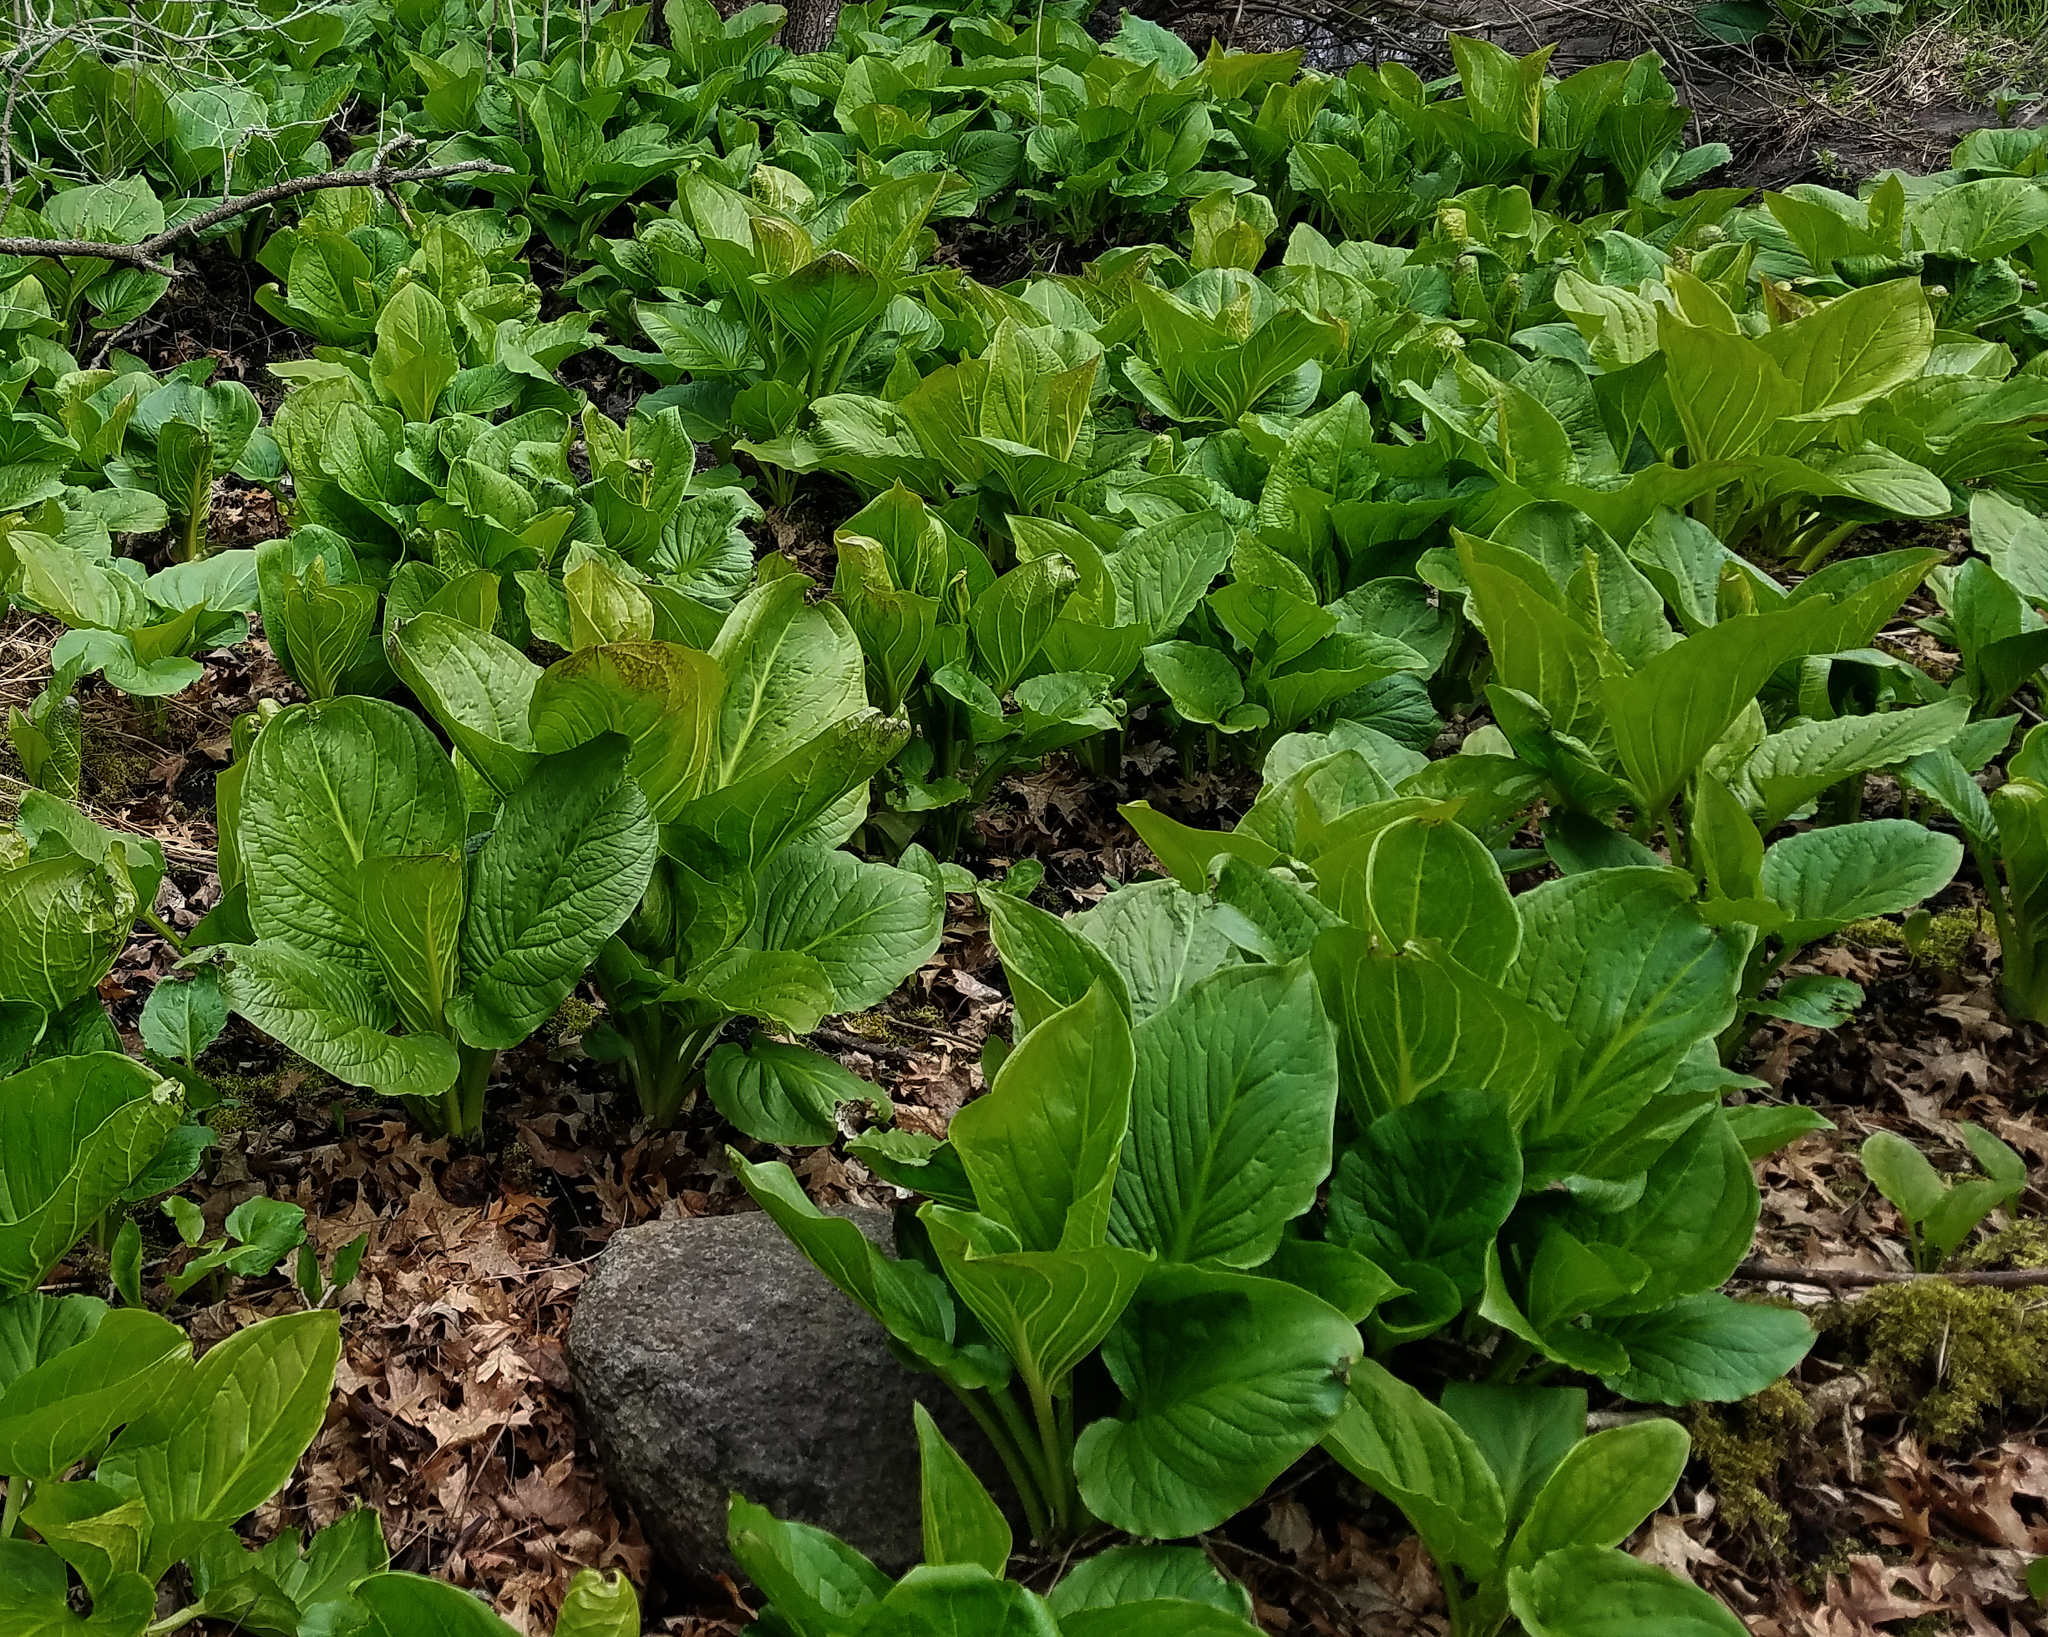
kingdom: Plantae
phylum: Tracheophyta
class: Liliopsida
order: Alismatales
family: Araceae
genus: Symplocarpus
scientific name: Symplocarpus foetidus
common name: Eastern skunk cabbage
